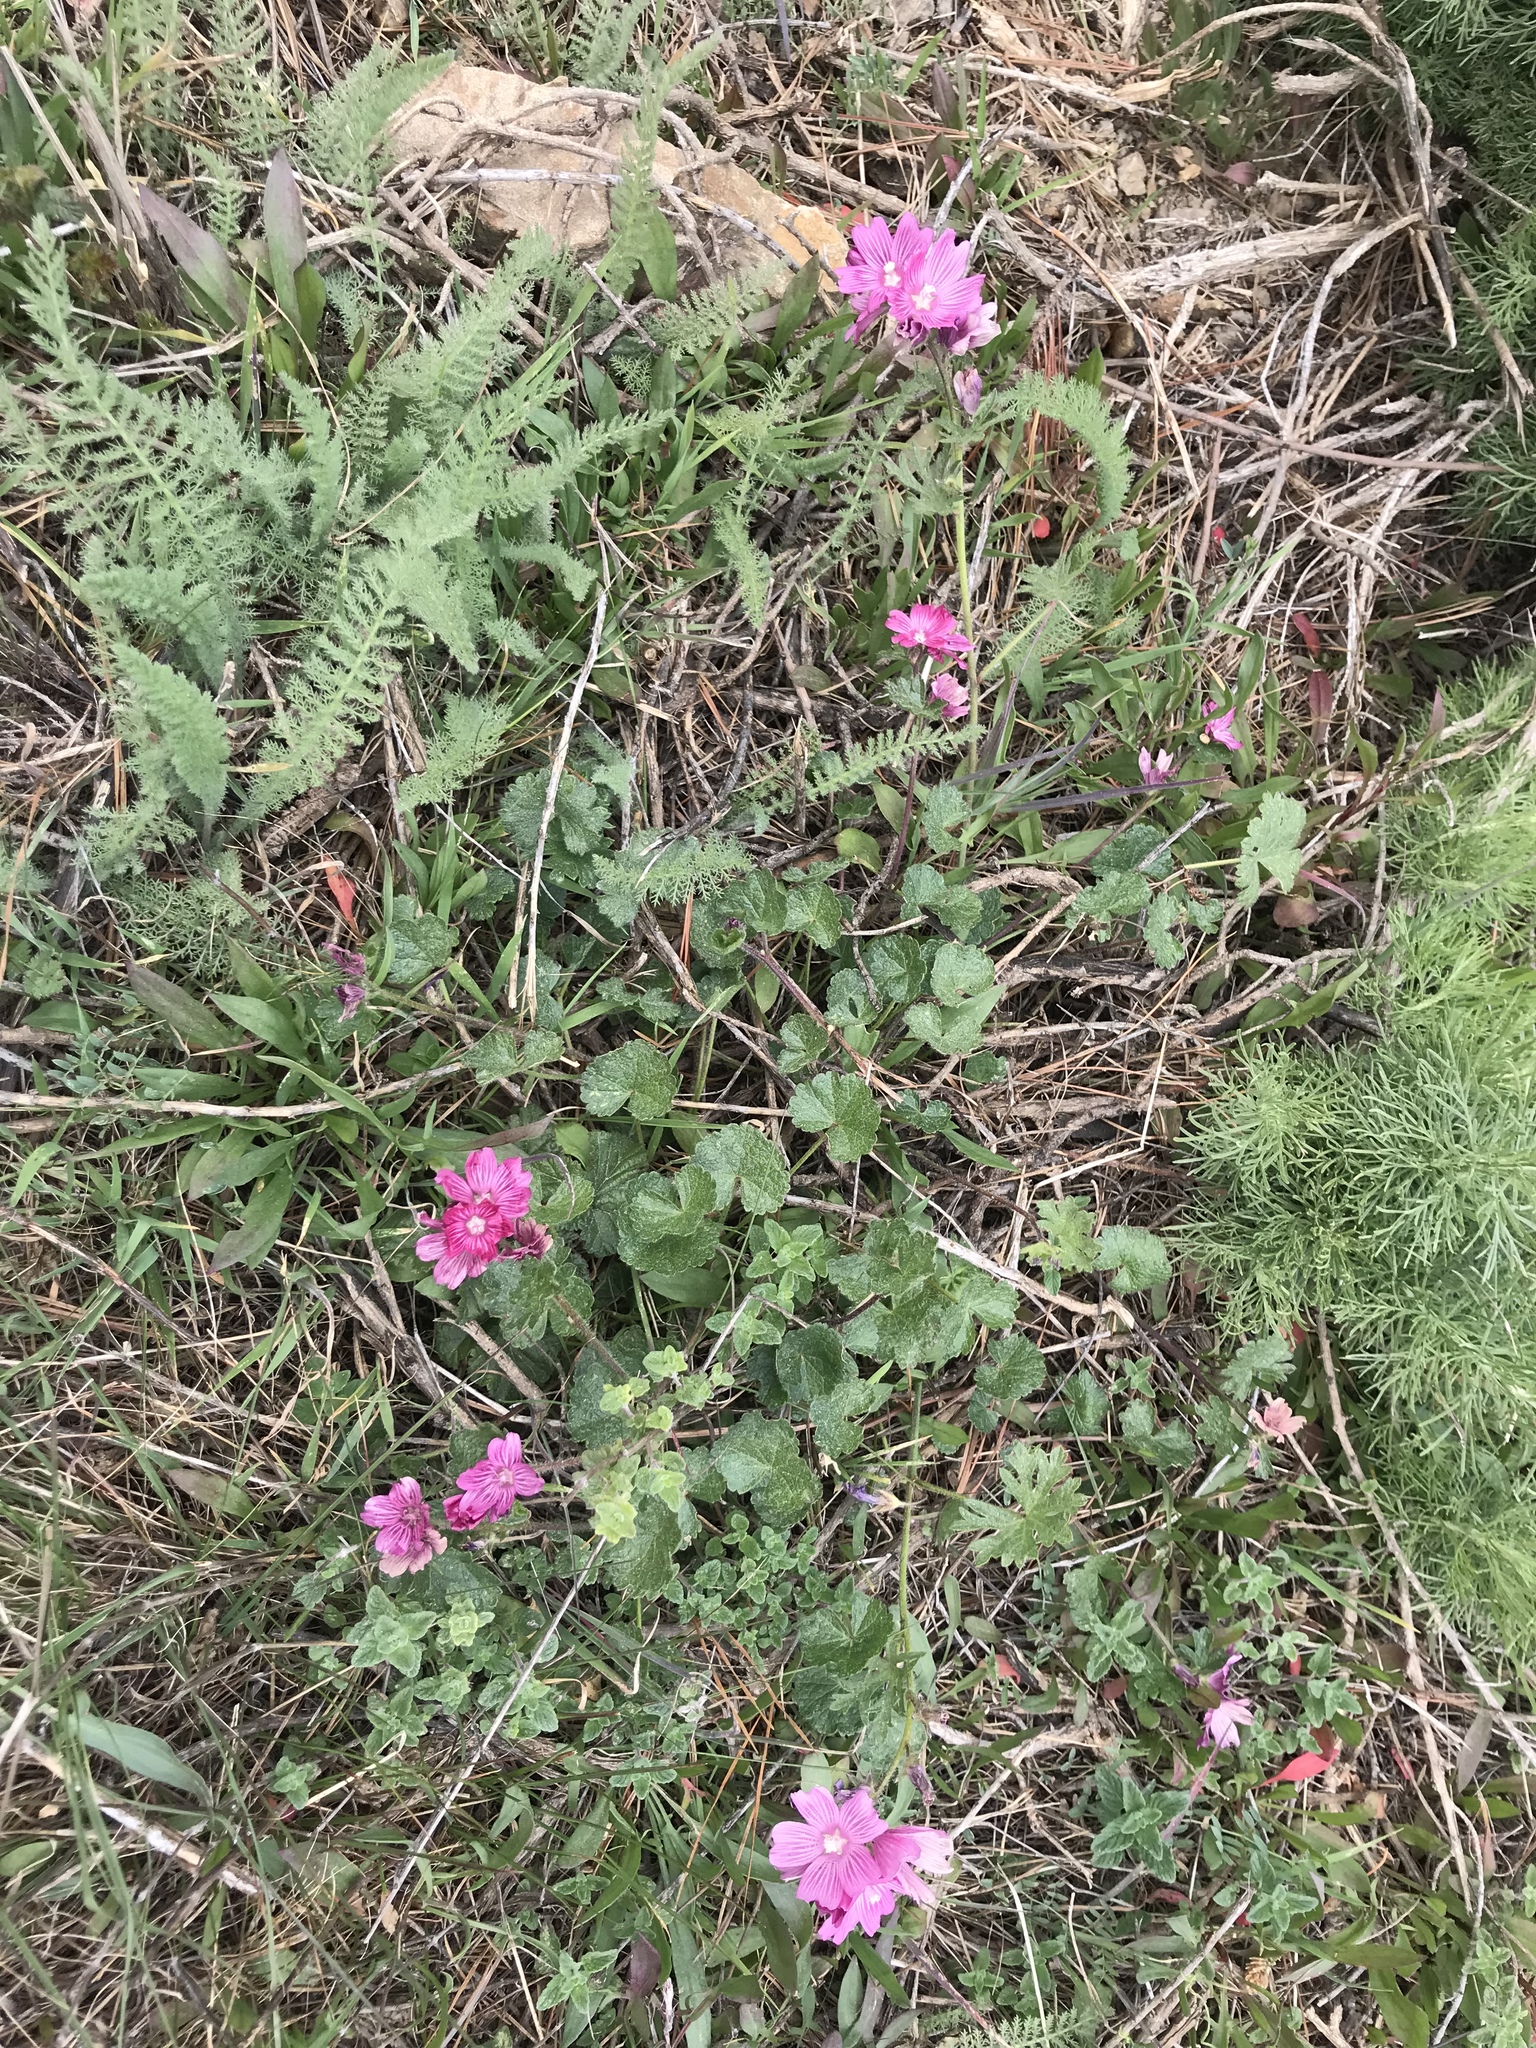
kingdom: Plantae
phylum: Tracheophyta
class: Magnoliopsida
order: Malvales
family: Malvaceae
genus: Sidalcea
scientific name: Sidalcea malviflora
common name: Greek mallow
